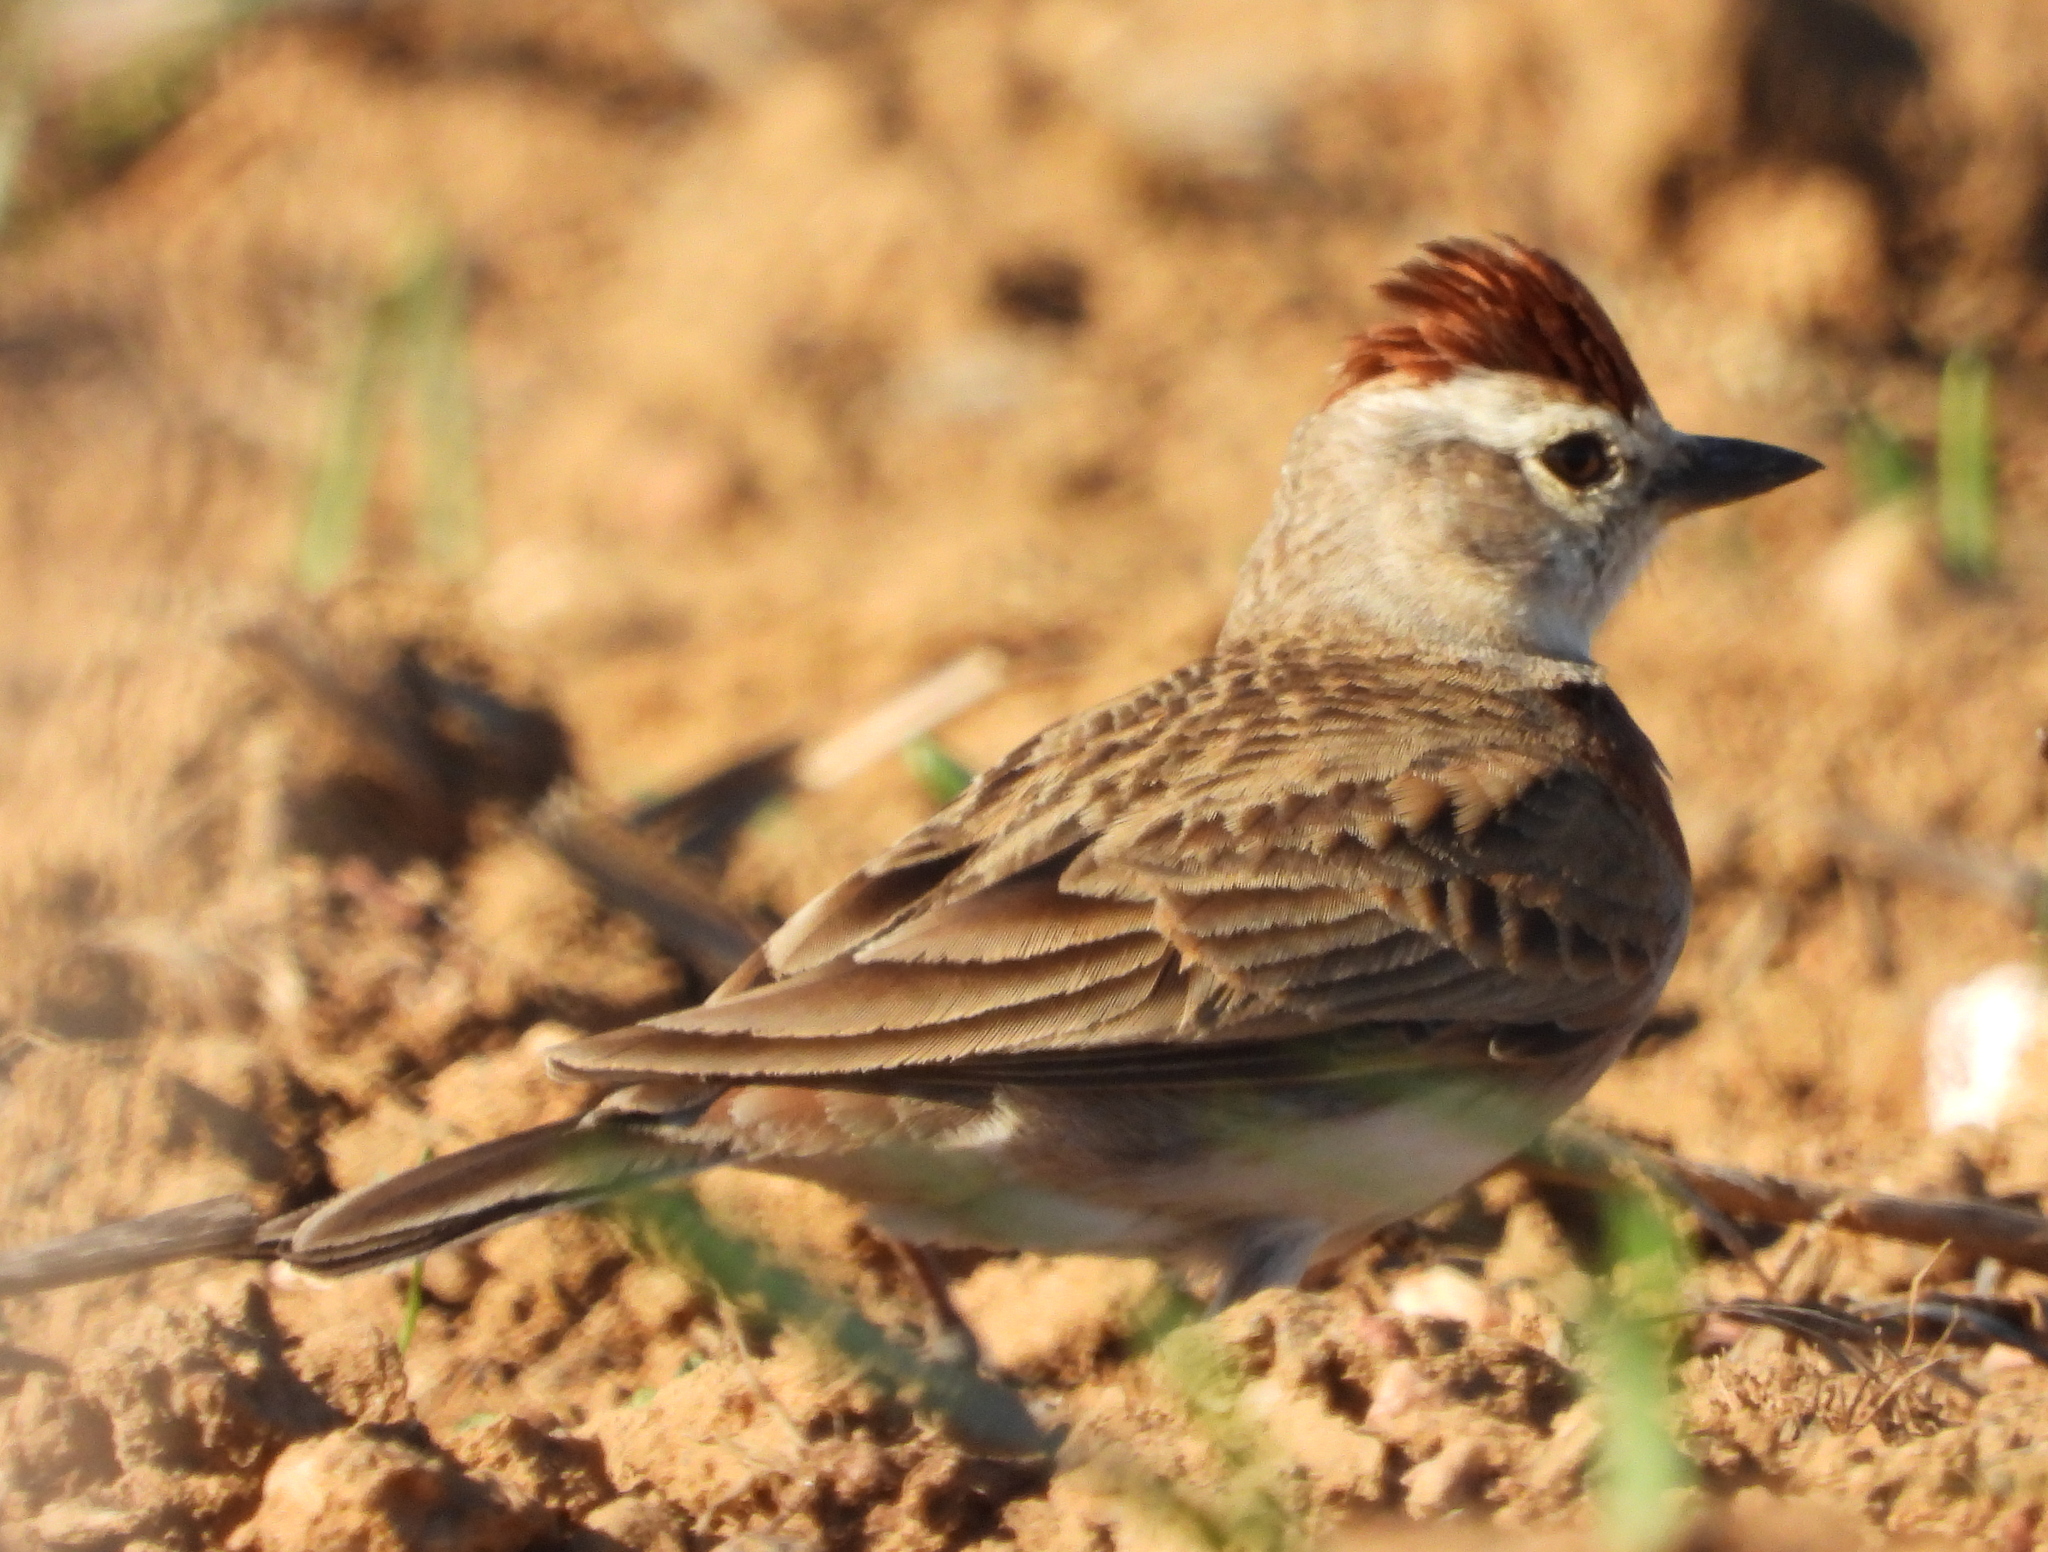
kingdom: Animalia
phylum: Chordata
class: Aves
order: Passeriformes
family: Alaudidae
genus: Calandrella
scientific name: Calandrella cinerea
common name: Red-capped lark
